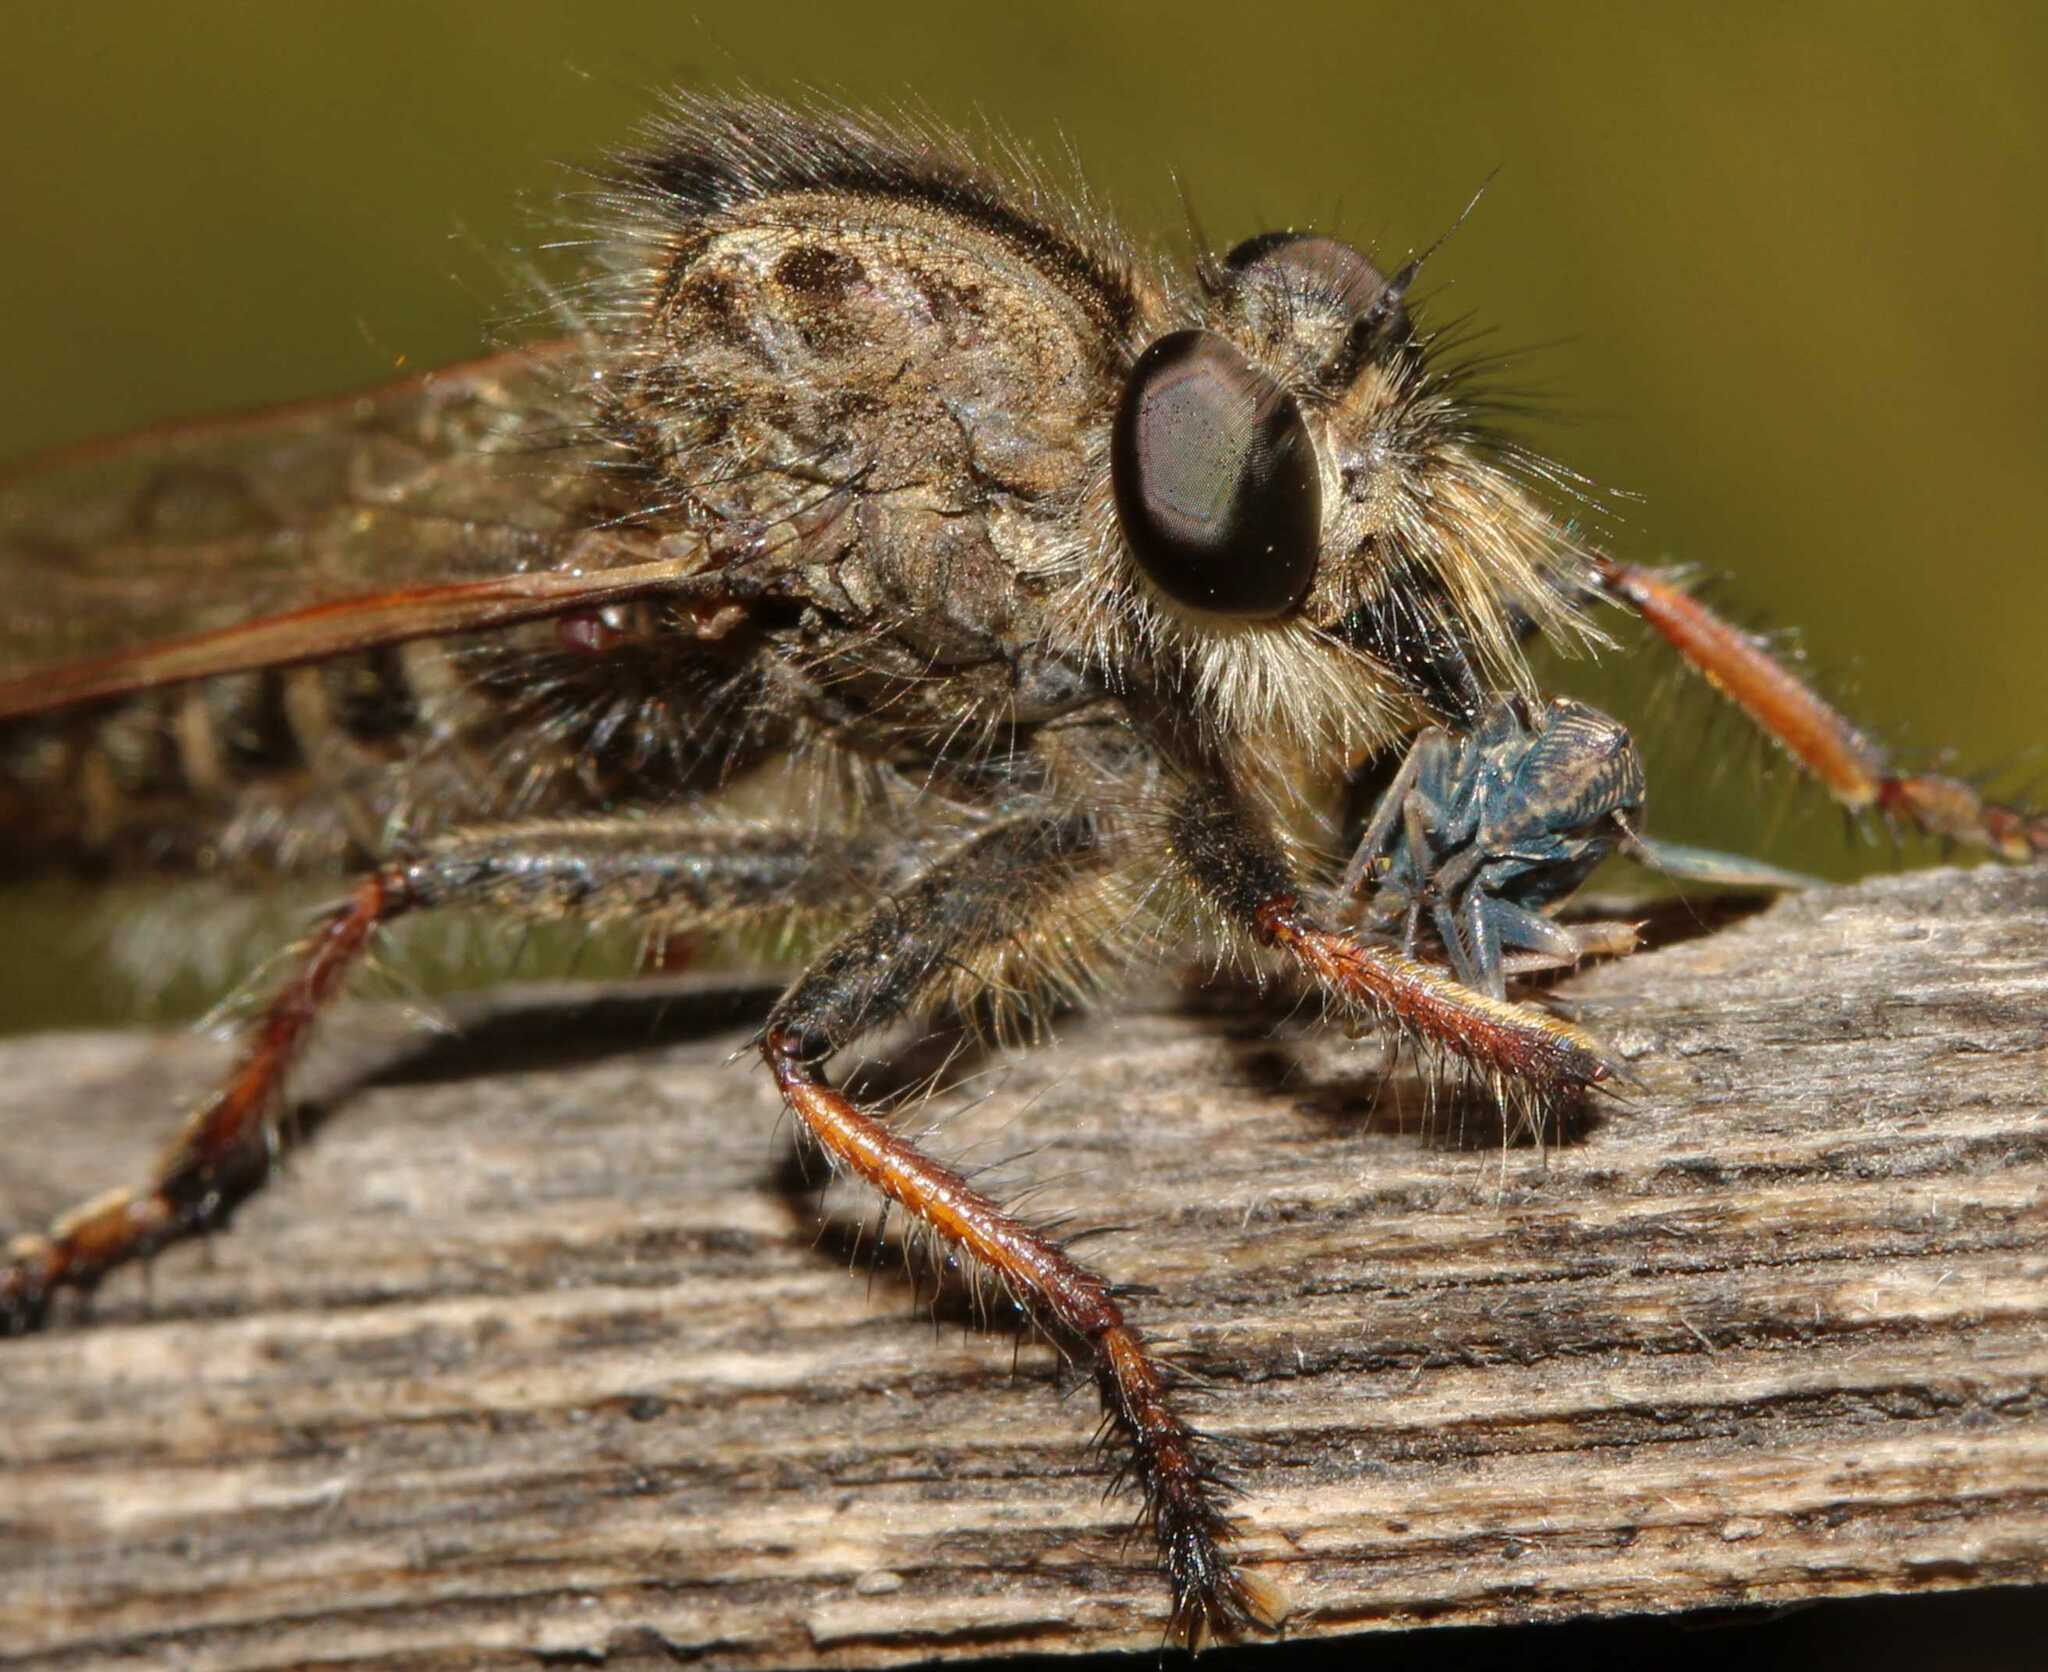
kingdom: Animalia
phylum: Arthropoda
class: Insecta
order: Hemiptera
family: Deltocephalidae
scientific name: Deltocephalidae
